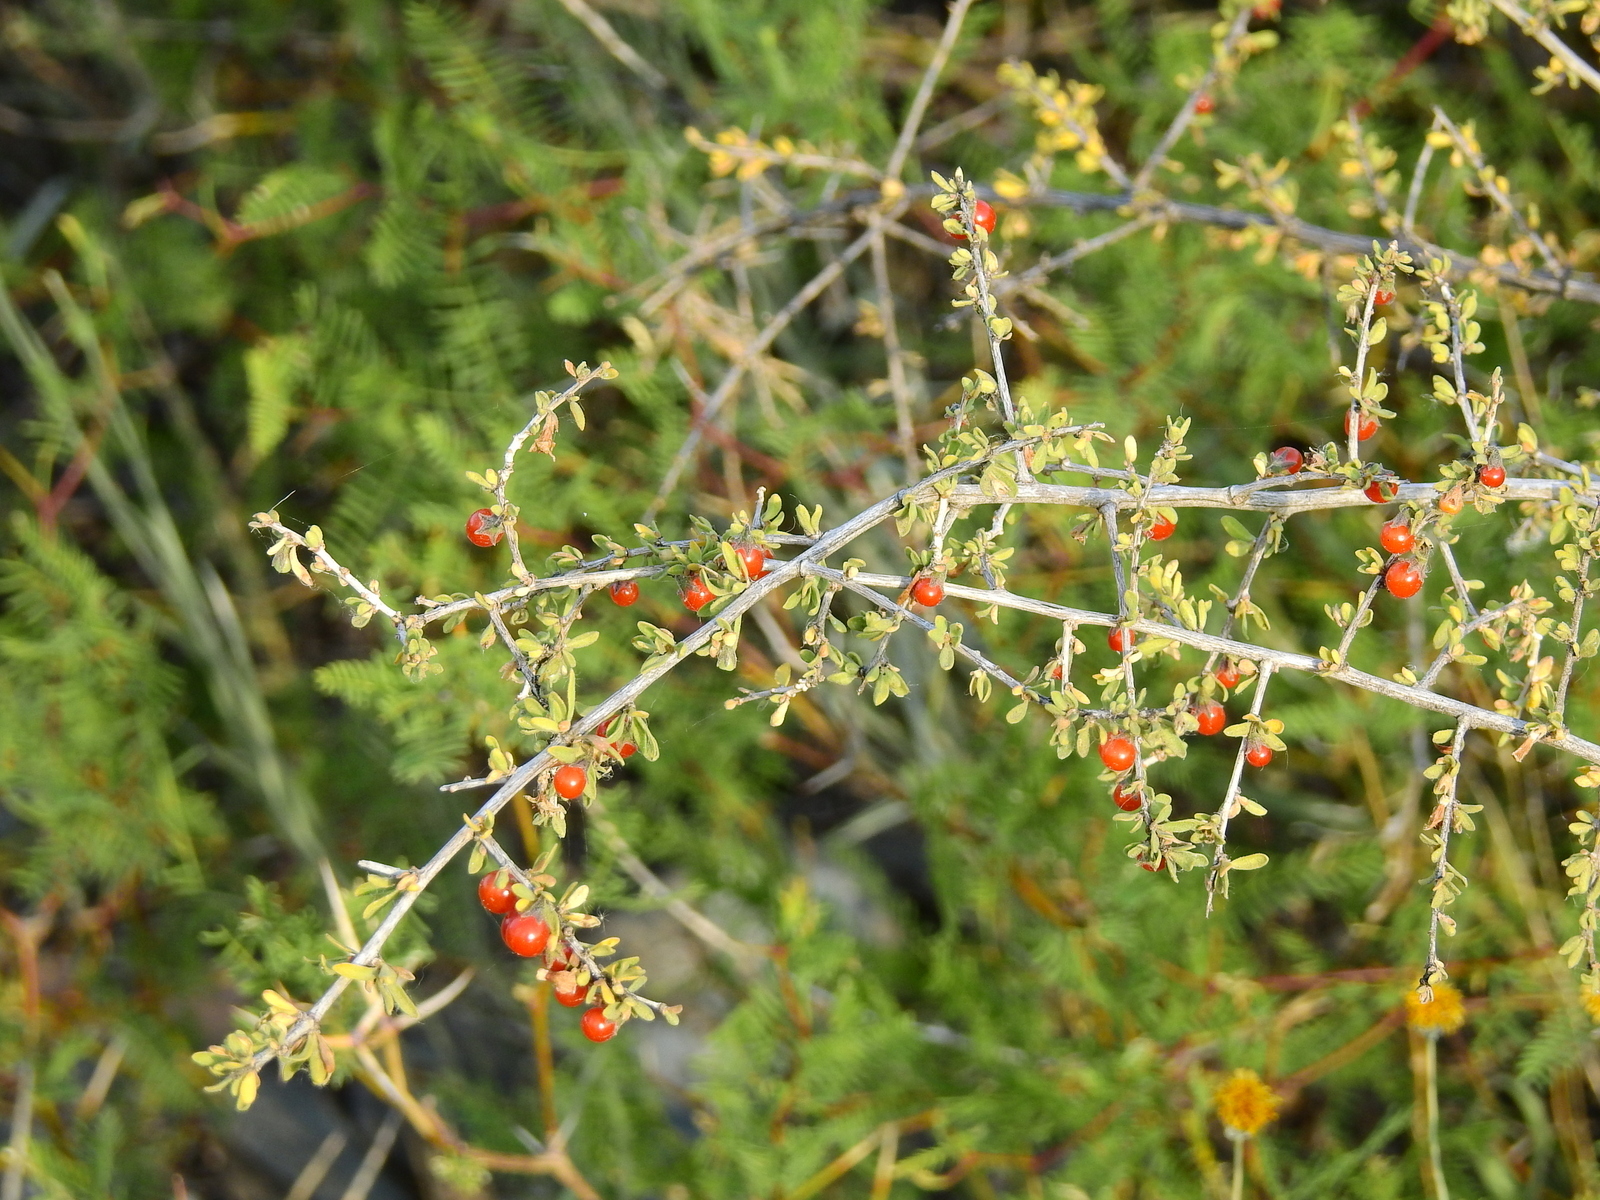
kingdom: Plantae
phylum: Tracheophyta
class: Magnoliopsida
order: Solanales
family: Solanaceae
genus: Lycium
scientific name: Lycium chilense
